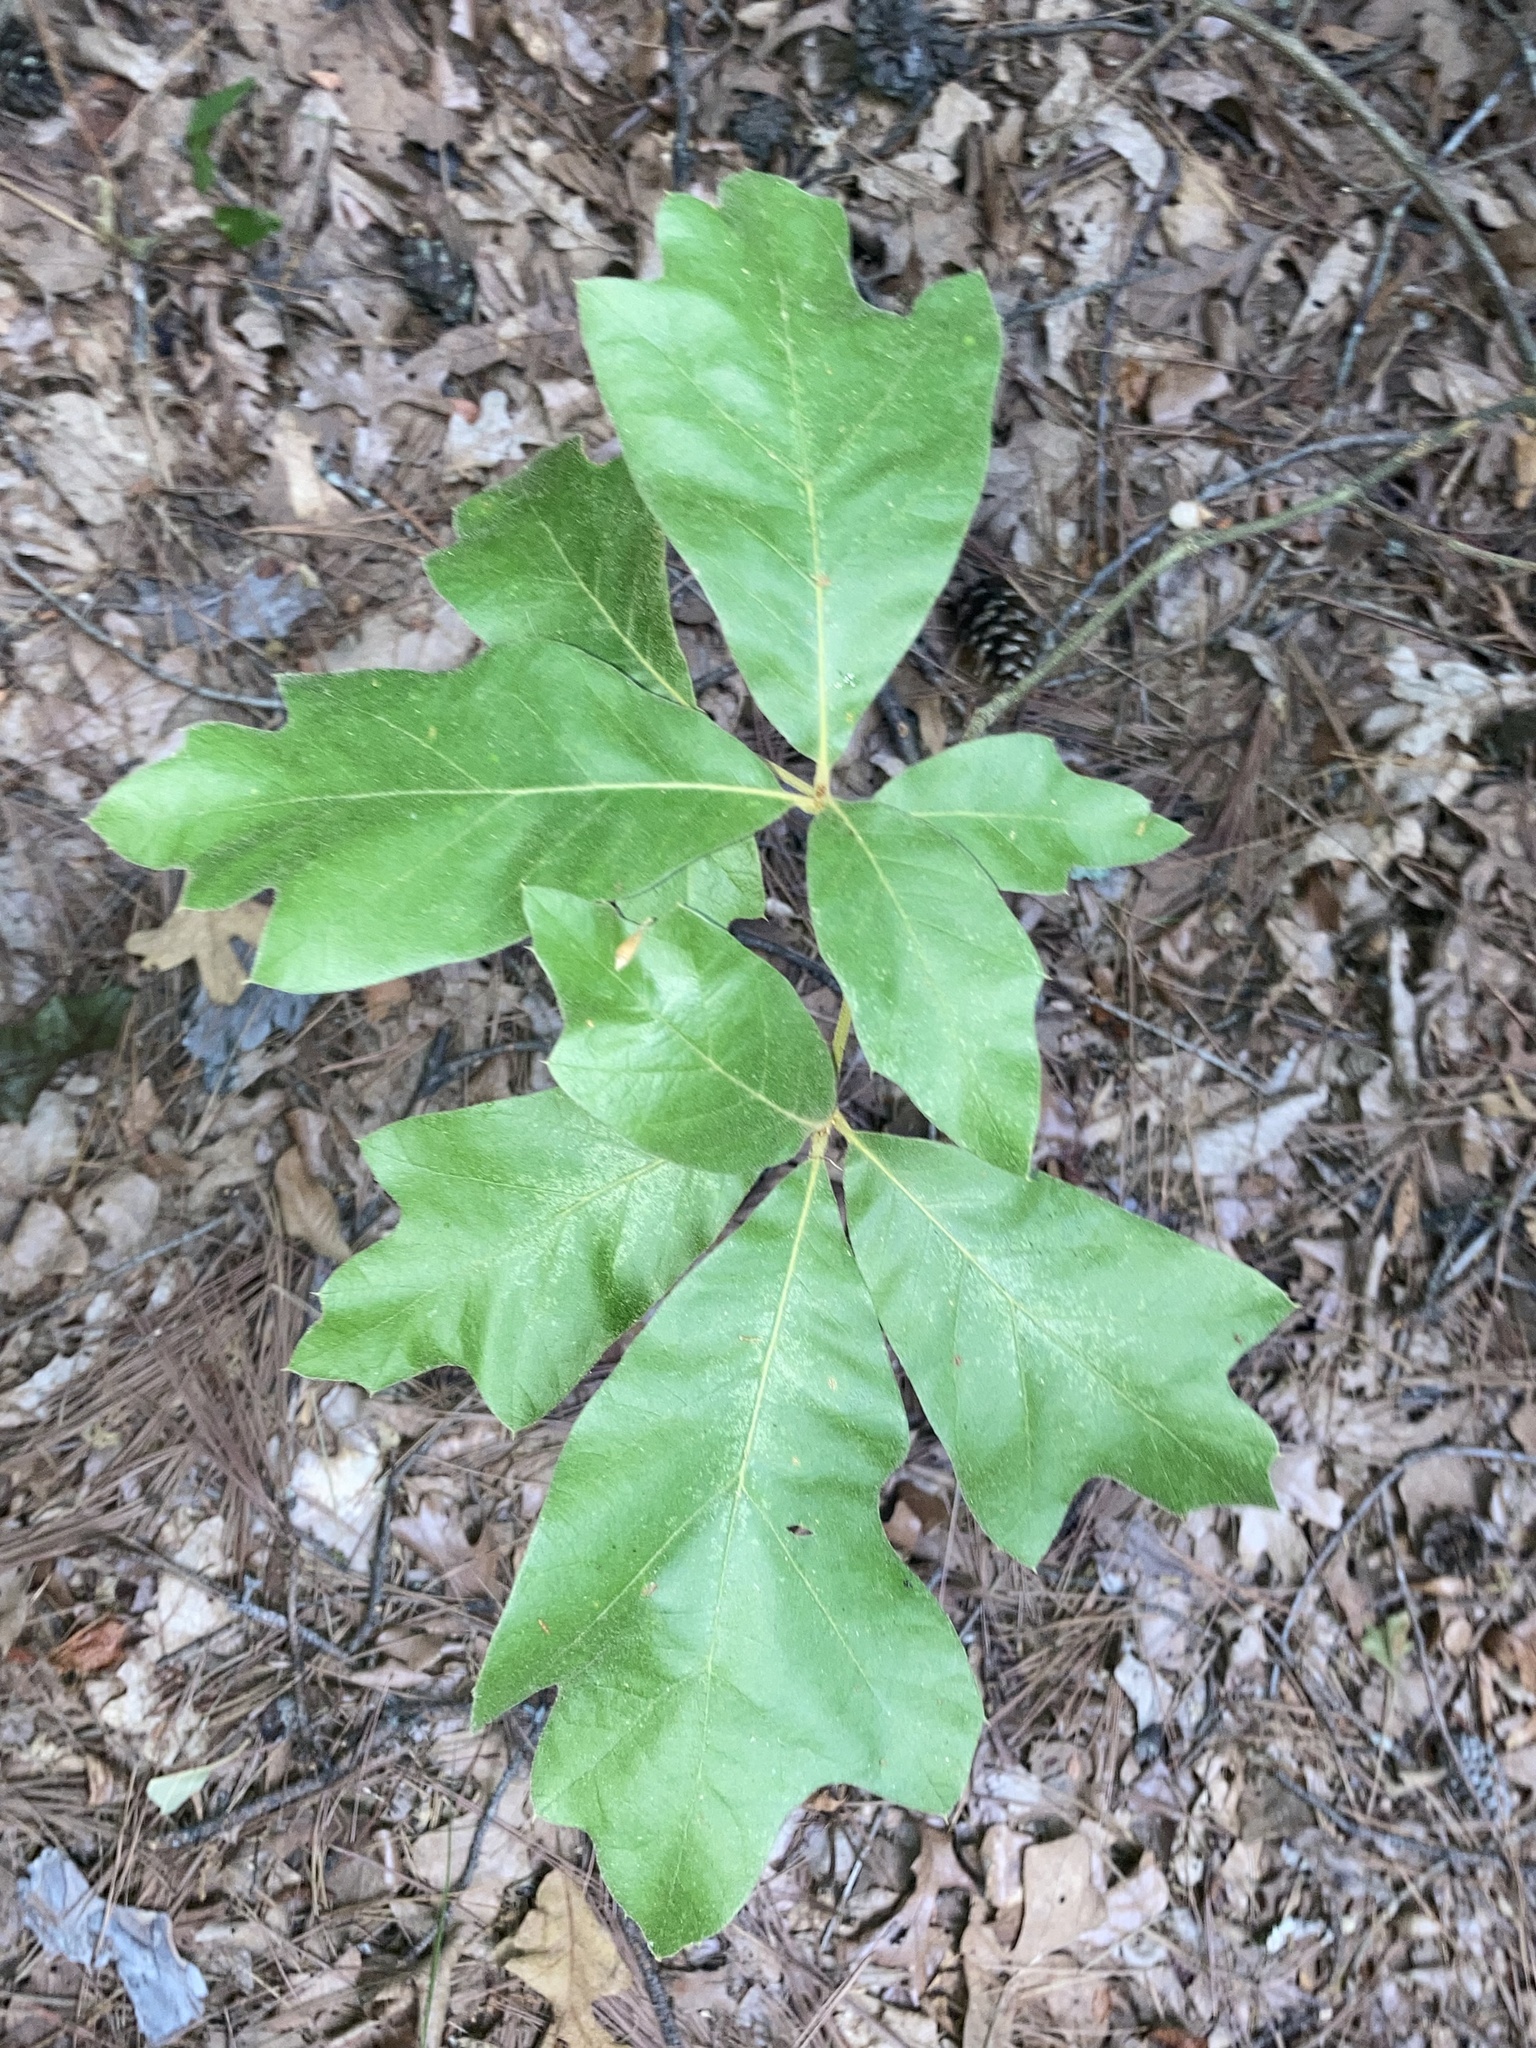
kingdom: Plantae
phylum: Tracheophyta
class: Magnoliopsida
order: Fagales
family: Fagaceae
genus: Quercus
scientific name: Quercus falcata
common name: Southern red oak
